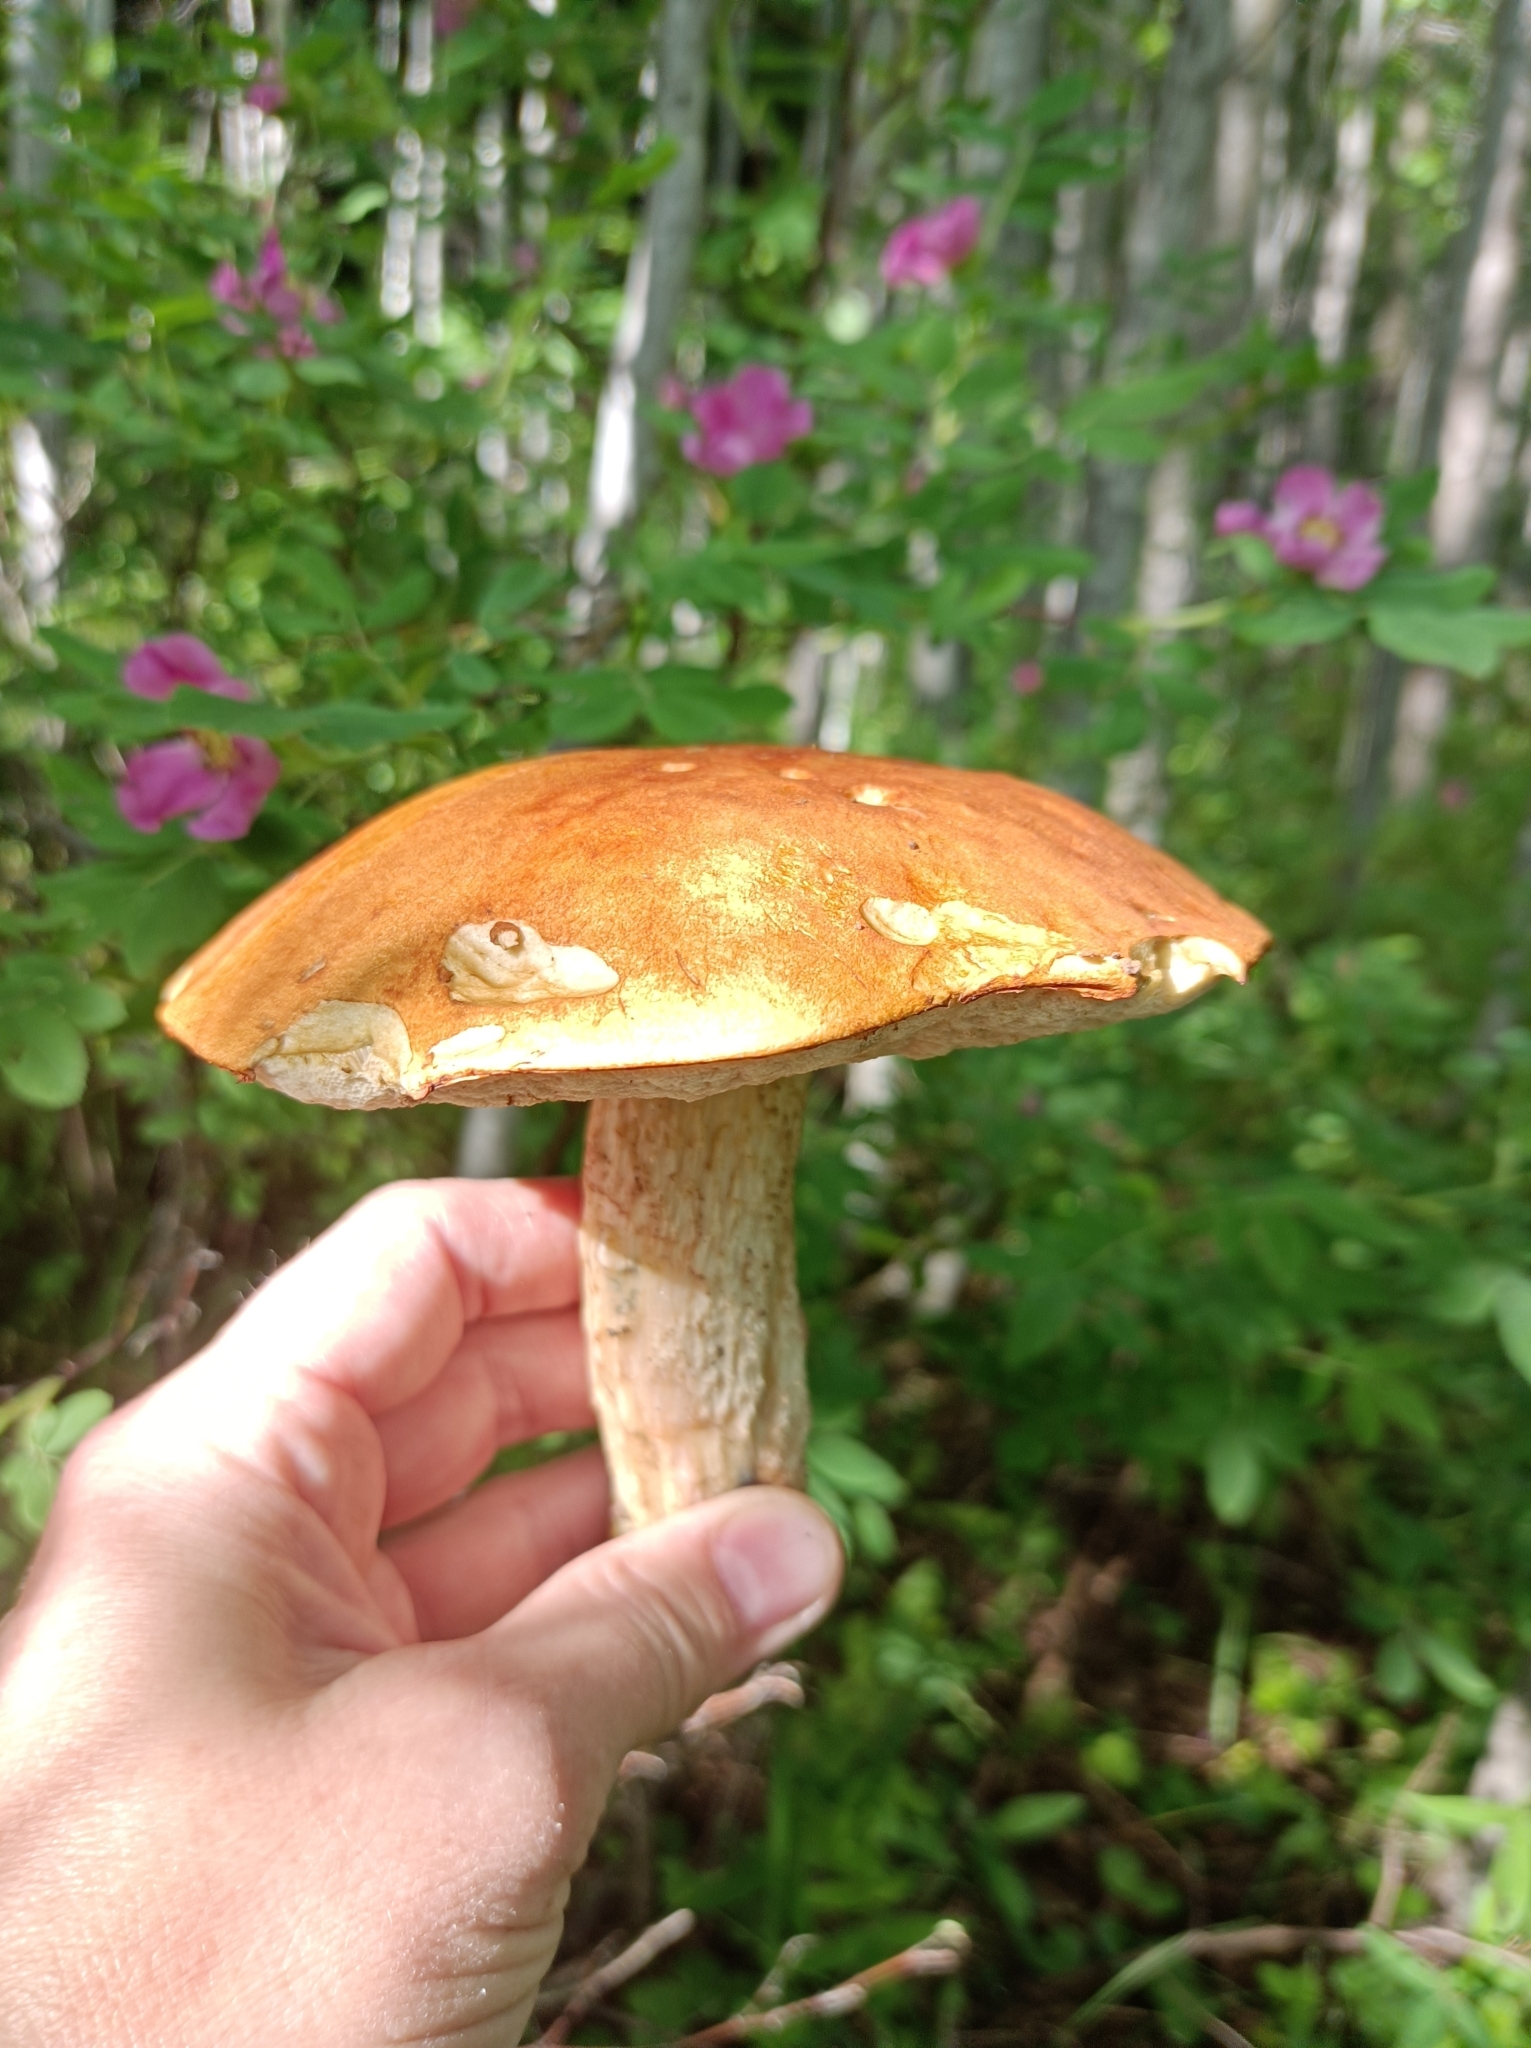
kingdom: Fungi
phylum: Basidiomycota
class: Agaricomycetes
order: Boletales
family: Boletaceae
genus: Leccinum
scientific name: Leccinum aurantiacum
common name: Orange bolete
